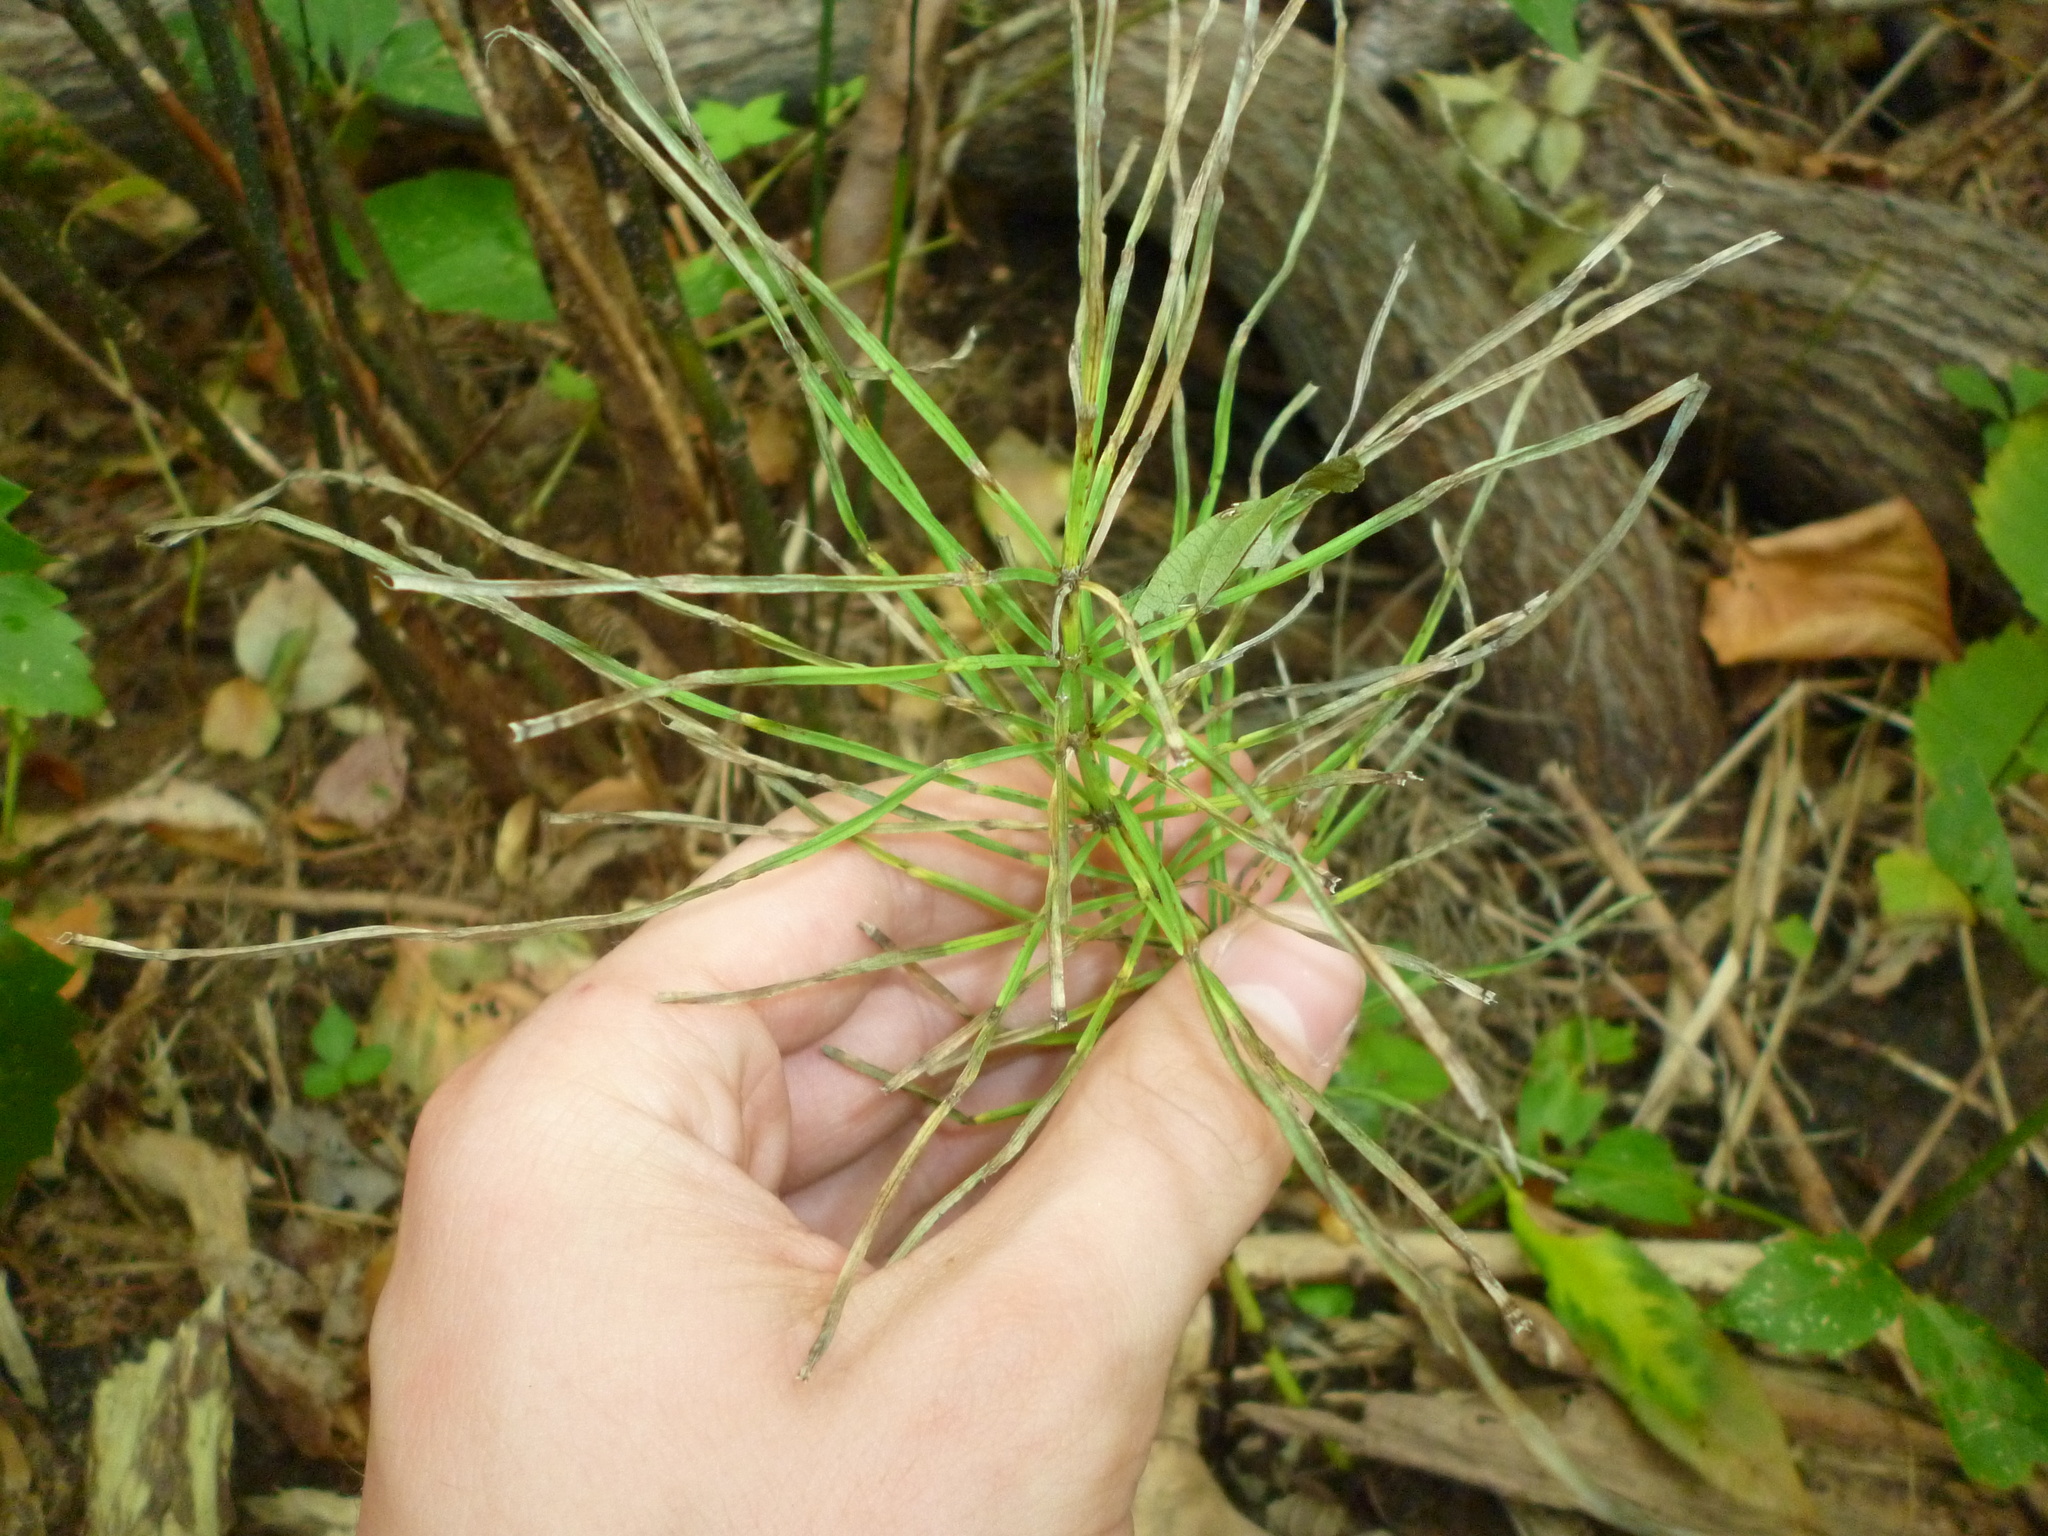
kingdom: Plantae
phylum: Tracheophyta
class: Polypodiopsida
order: Equisetales
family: Equisetaceae
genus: Equisetum
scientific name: Equisetum arvense
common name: Field horsetail
